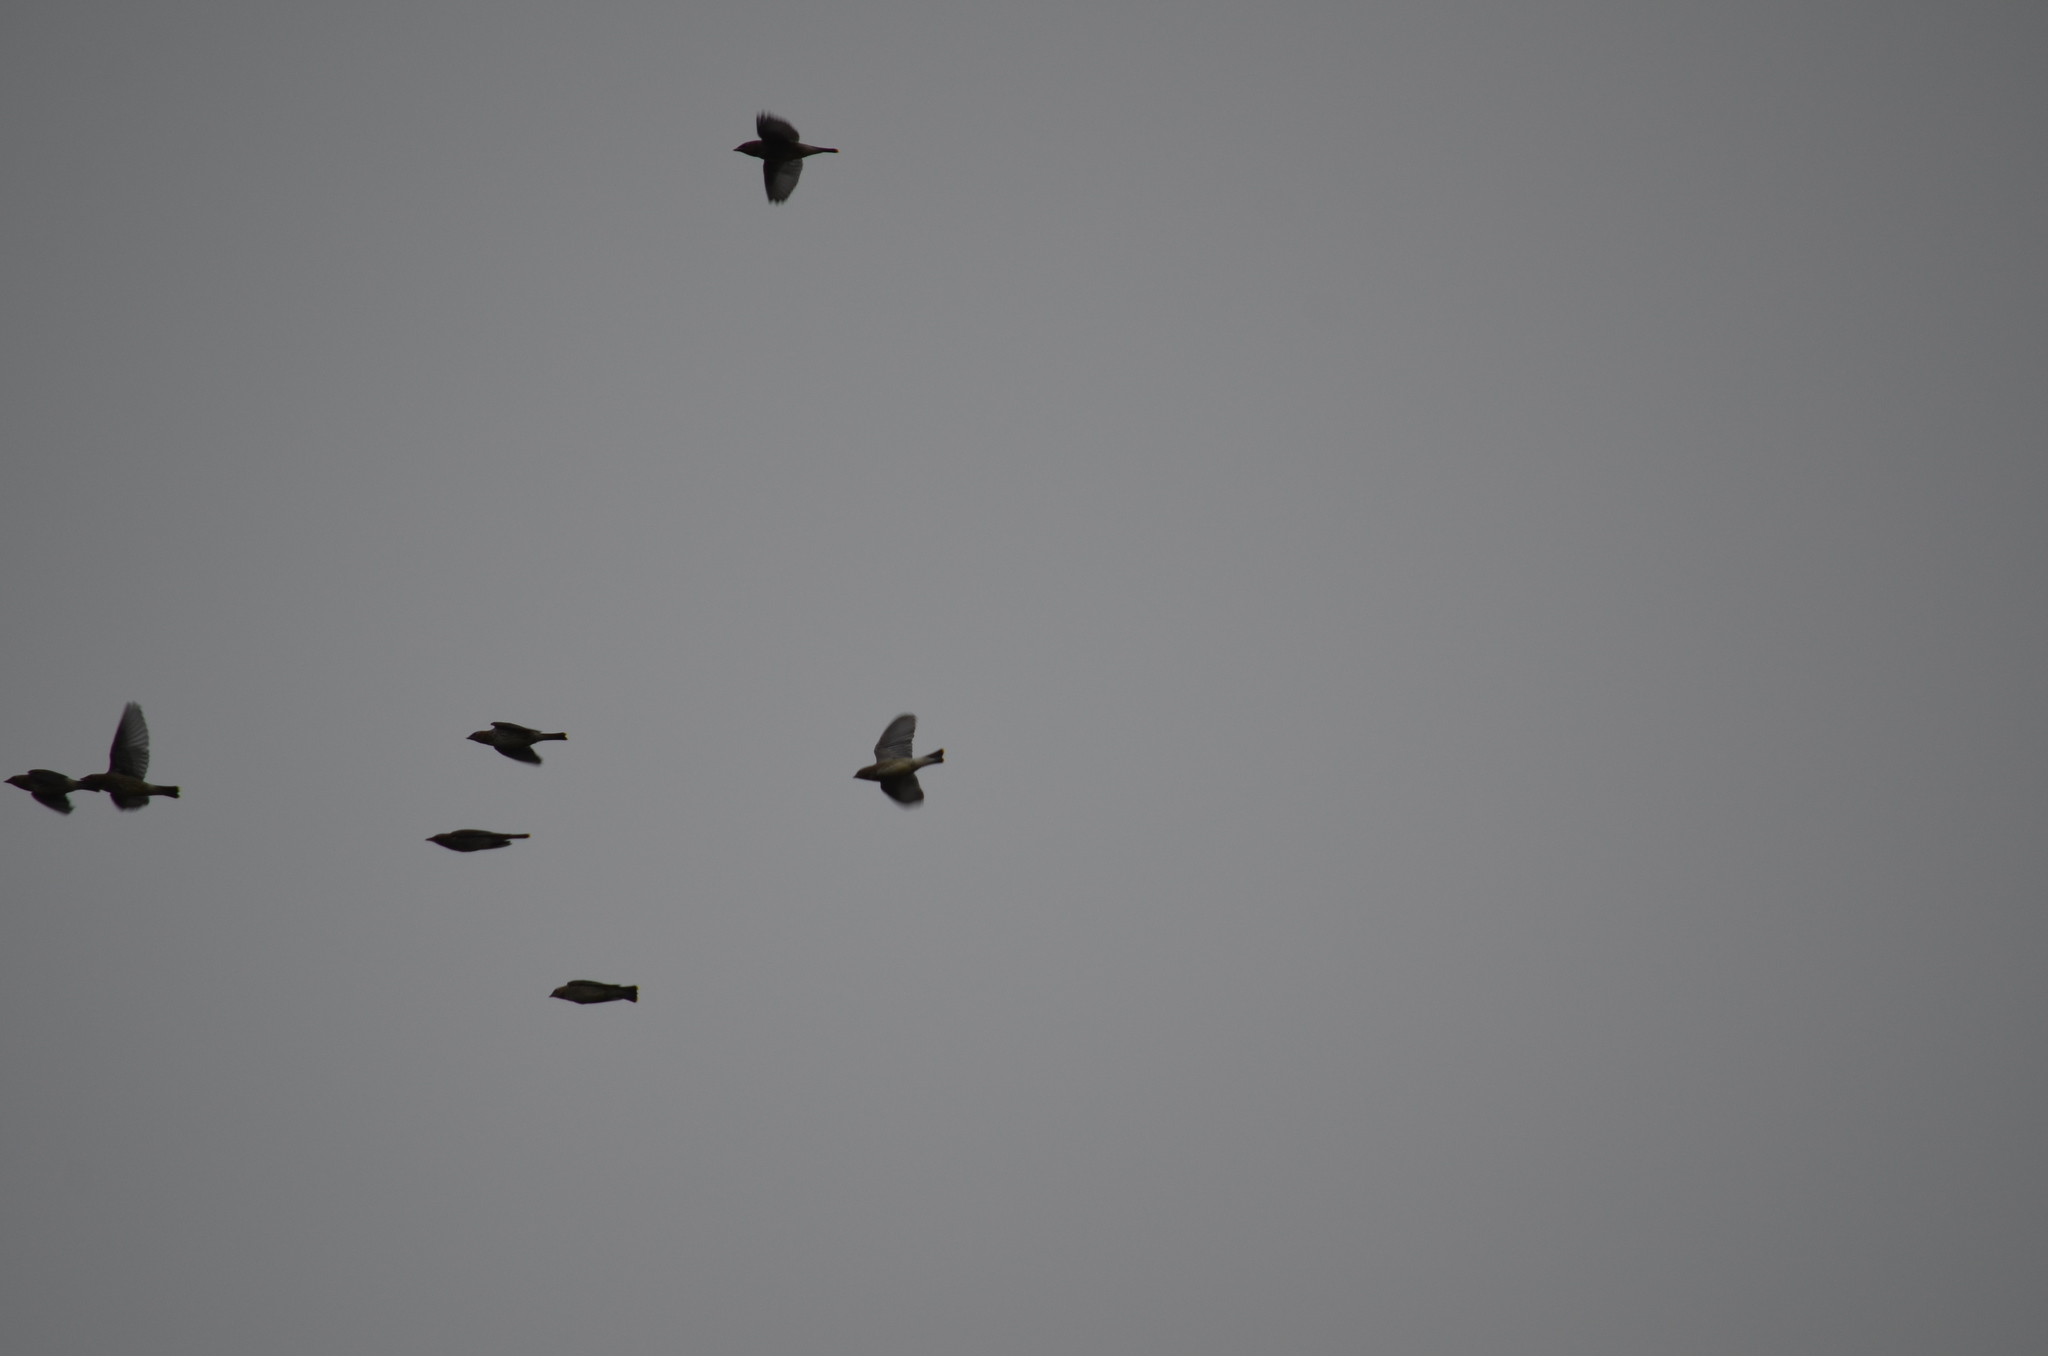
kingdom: Animalia
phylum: Chordata
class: Aves
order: Passeriformes
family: Bombycillidae
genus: Bombycilla
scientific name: Bombycilla cedrorum
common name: Cedar waxwing
